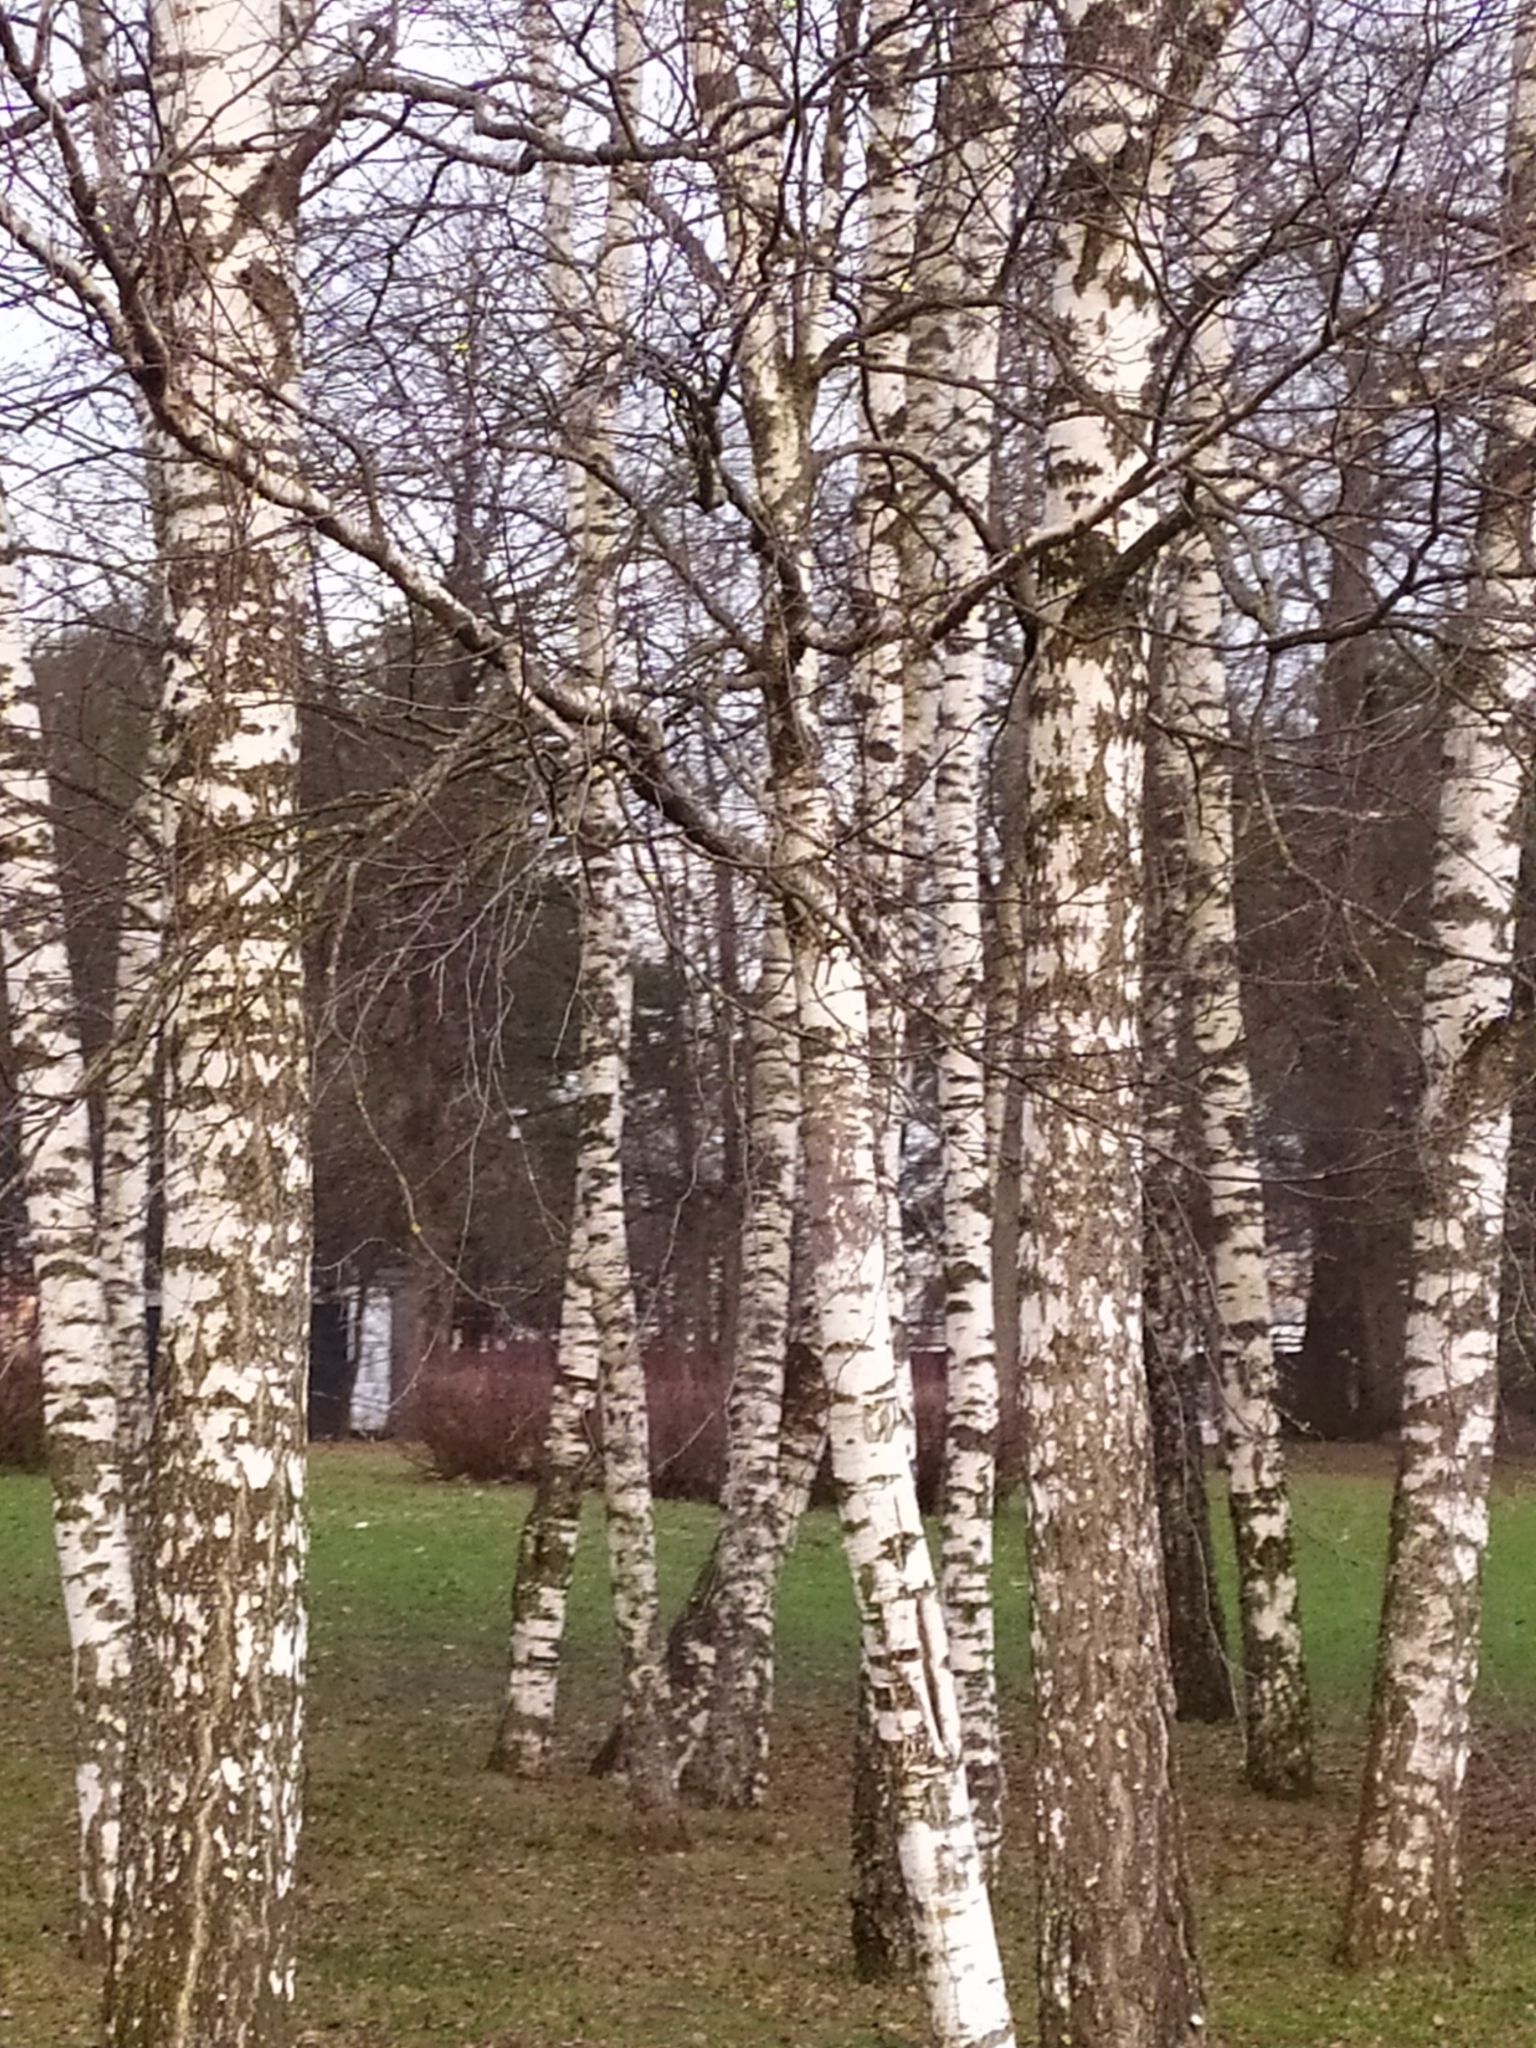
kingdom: Plantae
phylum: Tracheophyta
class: Magnoliopsida
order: Fagales
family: Betulaceae
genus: Betula
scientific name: Betula pendula
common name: Silver birch
